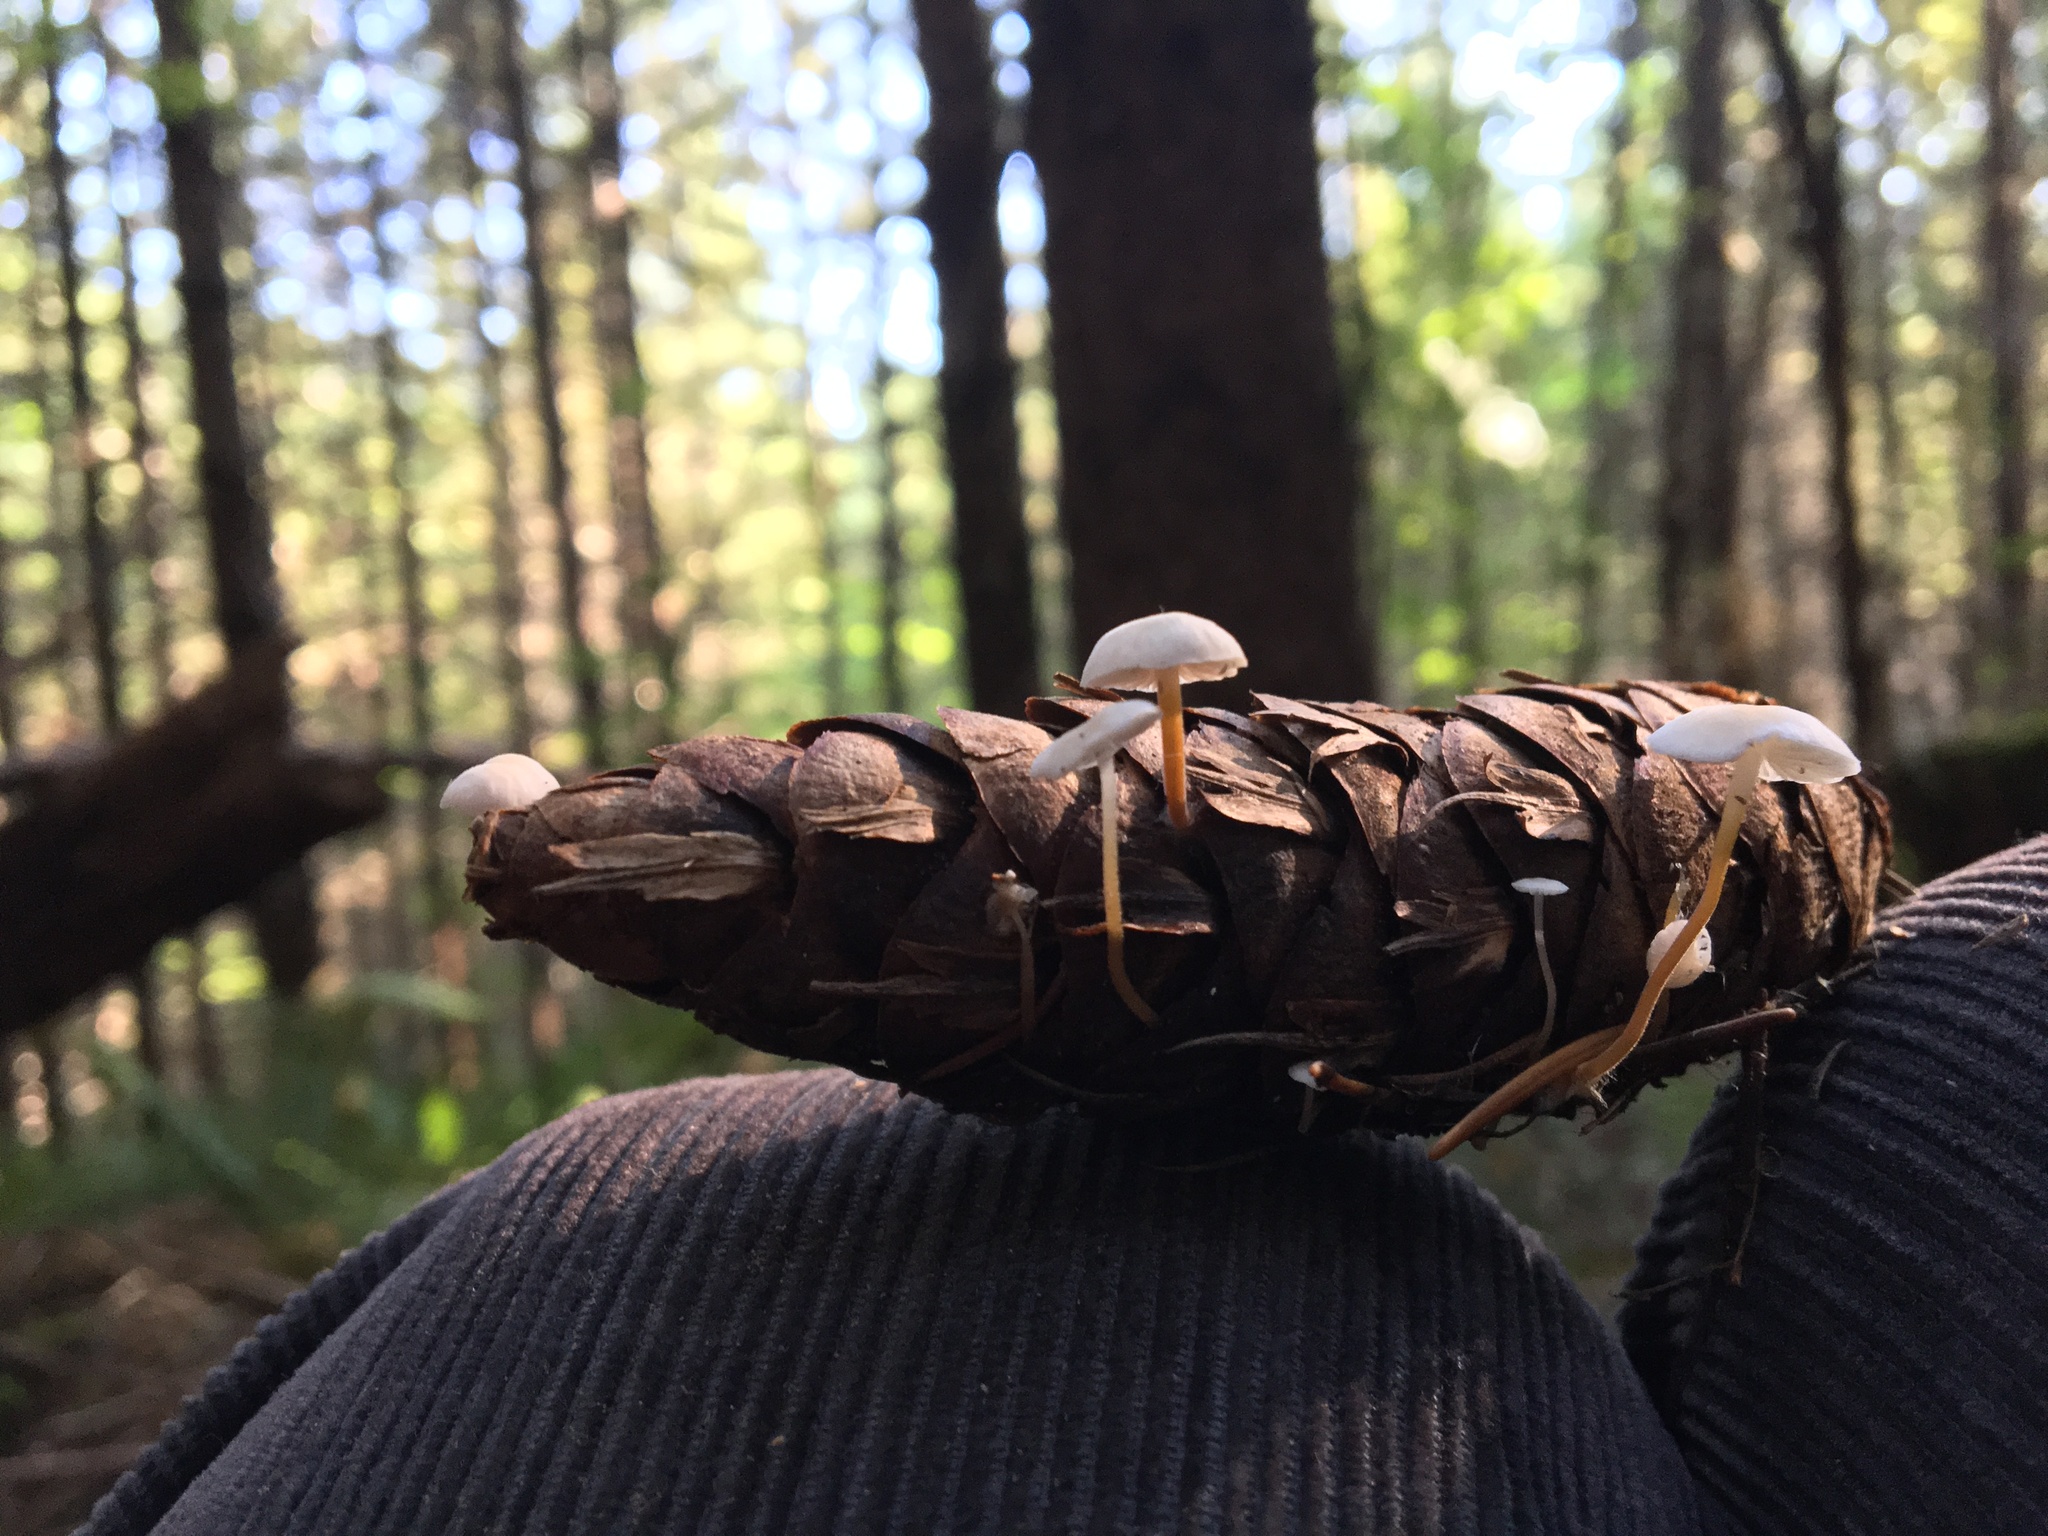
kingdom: Fungi
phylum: Basidiomycota
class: Agaricomycetes
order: Agaricales
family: Physalacriaceae
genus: Strobilurus
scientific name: Strobilurus trullisatus
